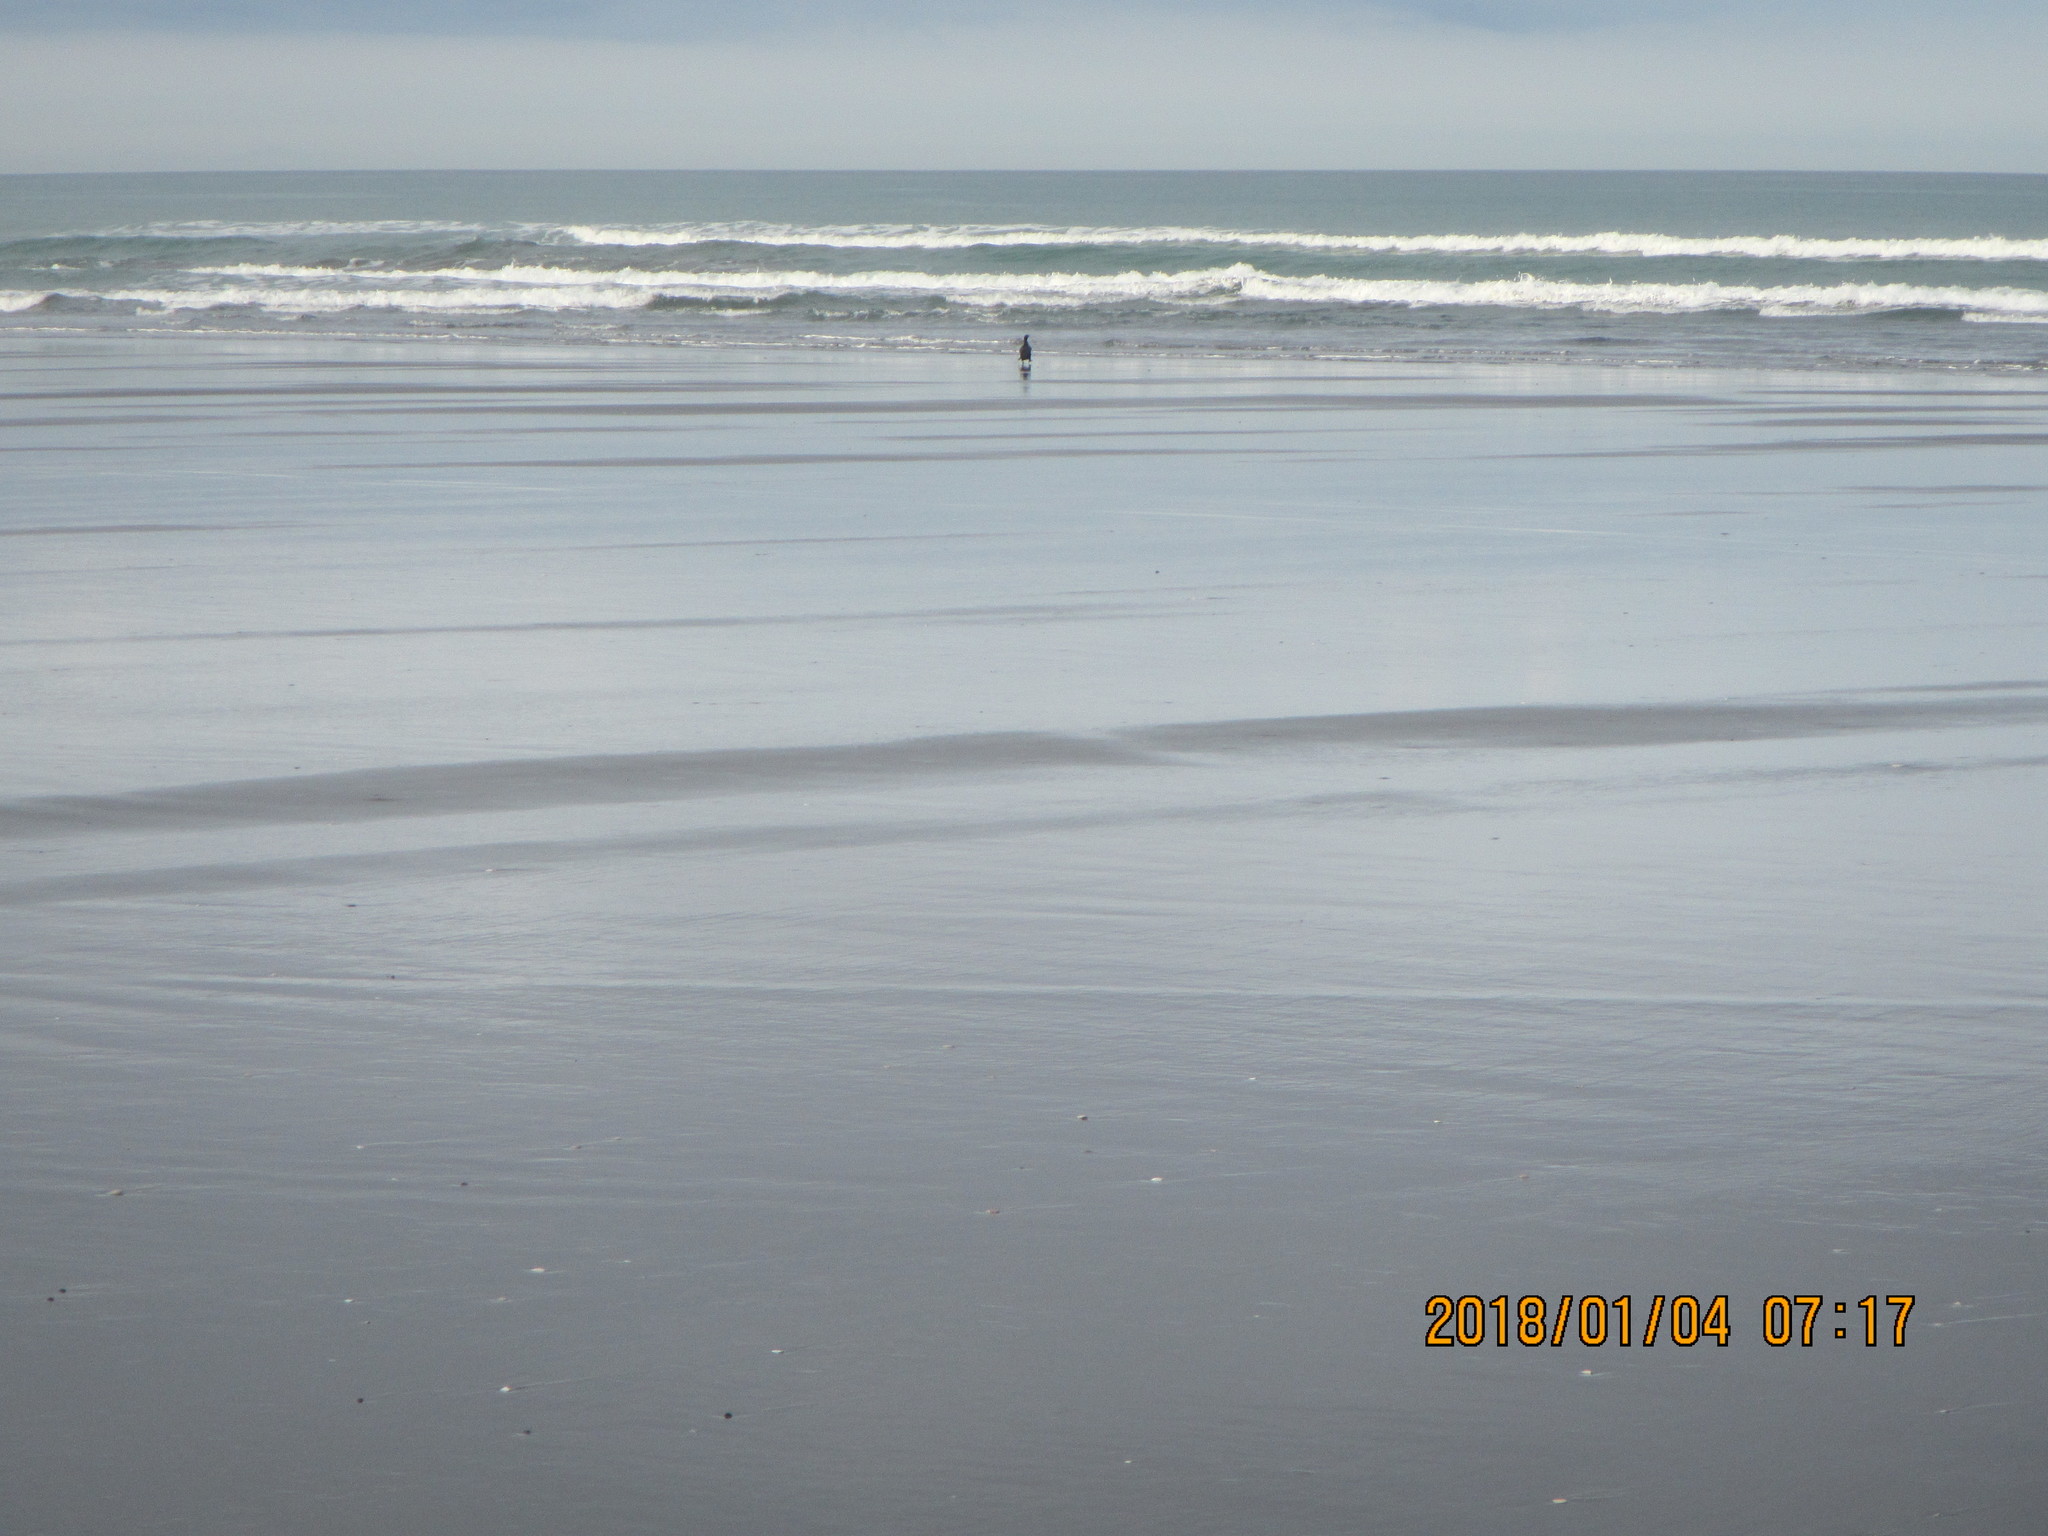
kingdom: Animalia
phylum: Chordata
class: Aves
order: Suliformes
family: Phalacrocoracidae
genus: Phalacrocorax
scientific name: Phalacrocorax carbo
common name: Great cormorant
